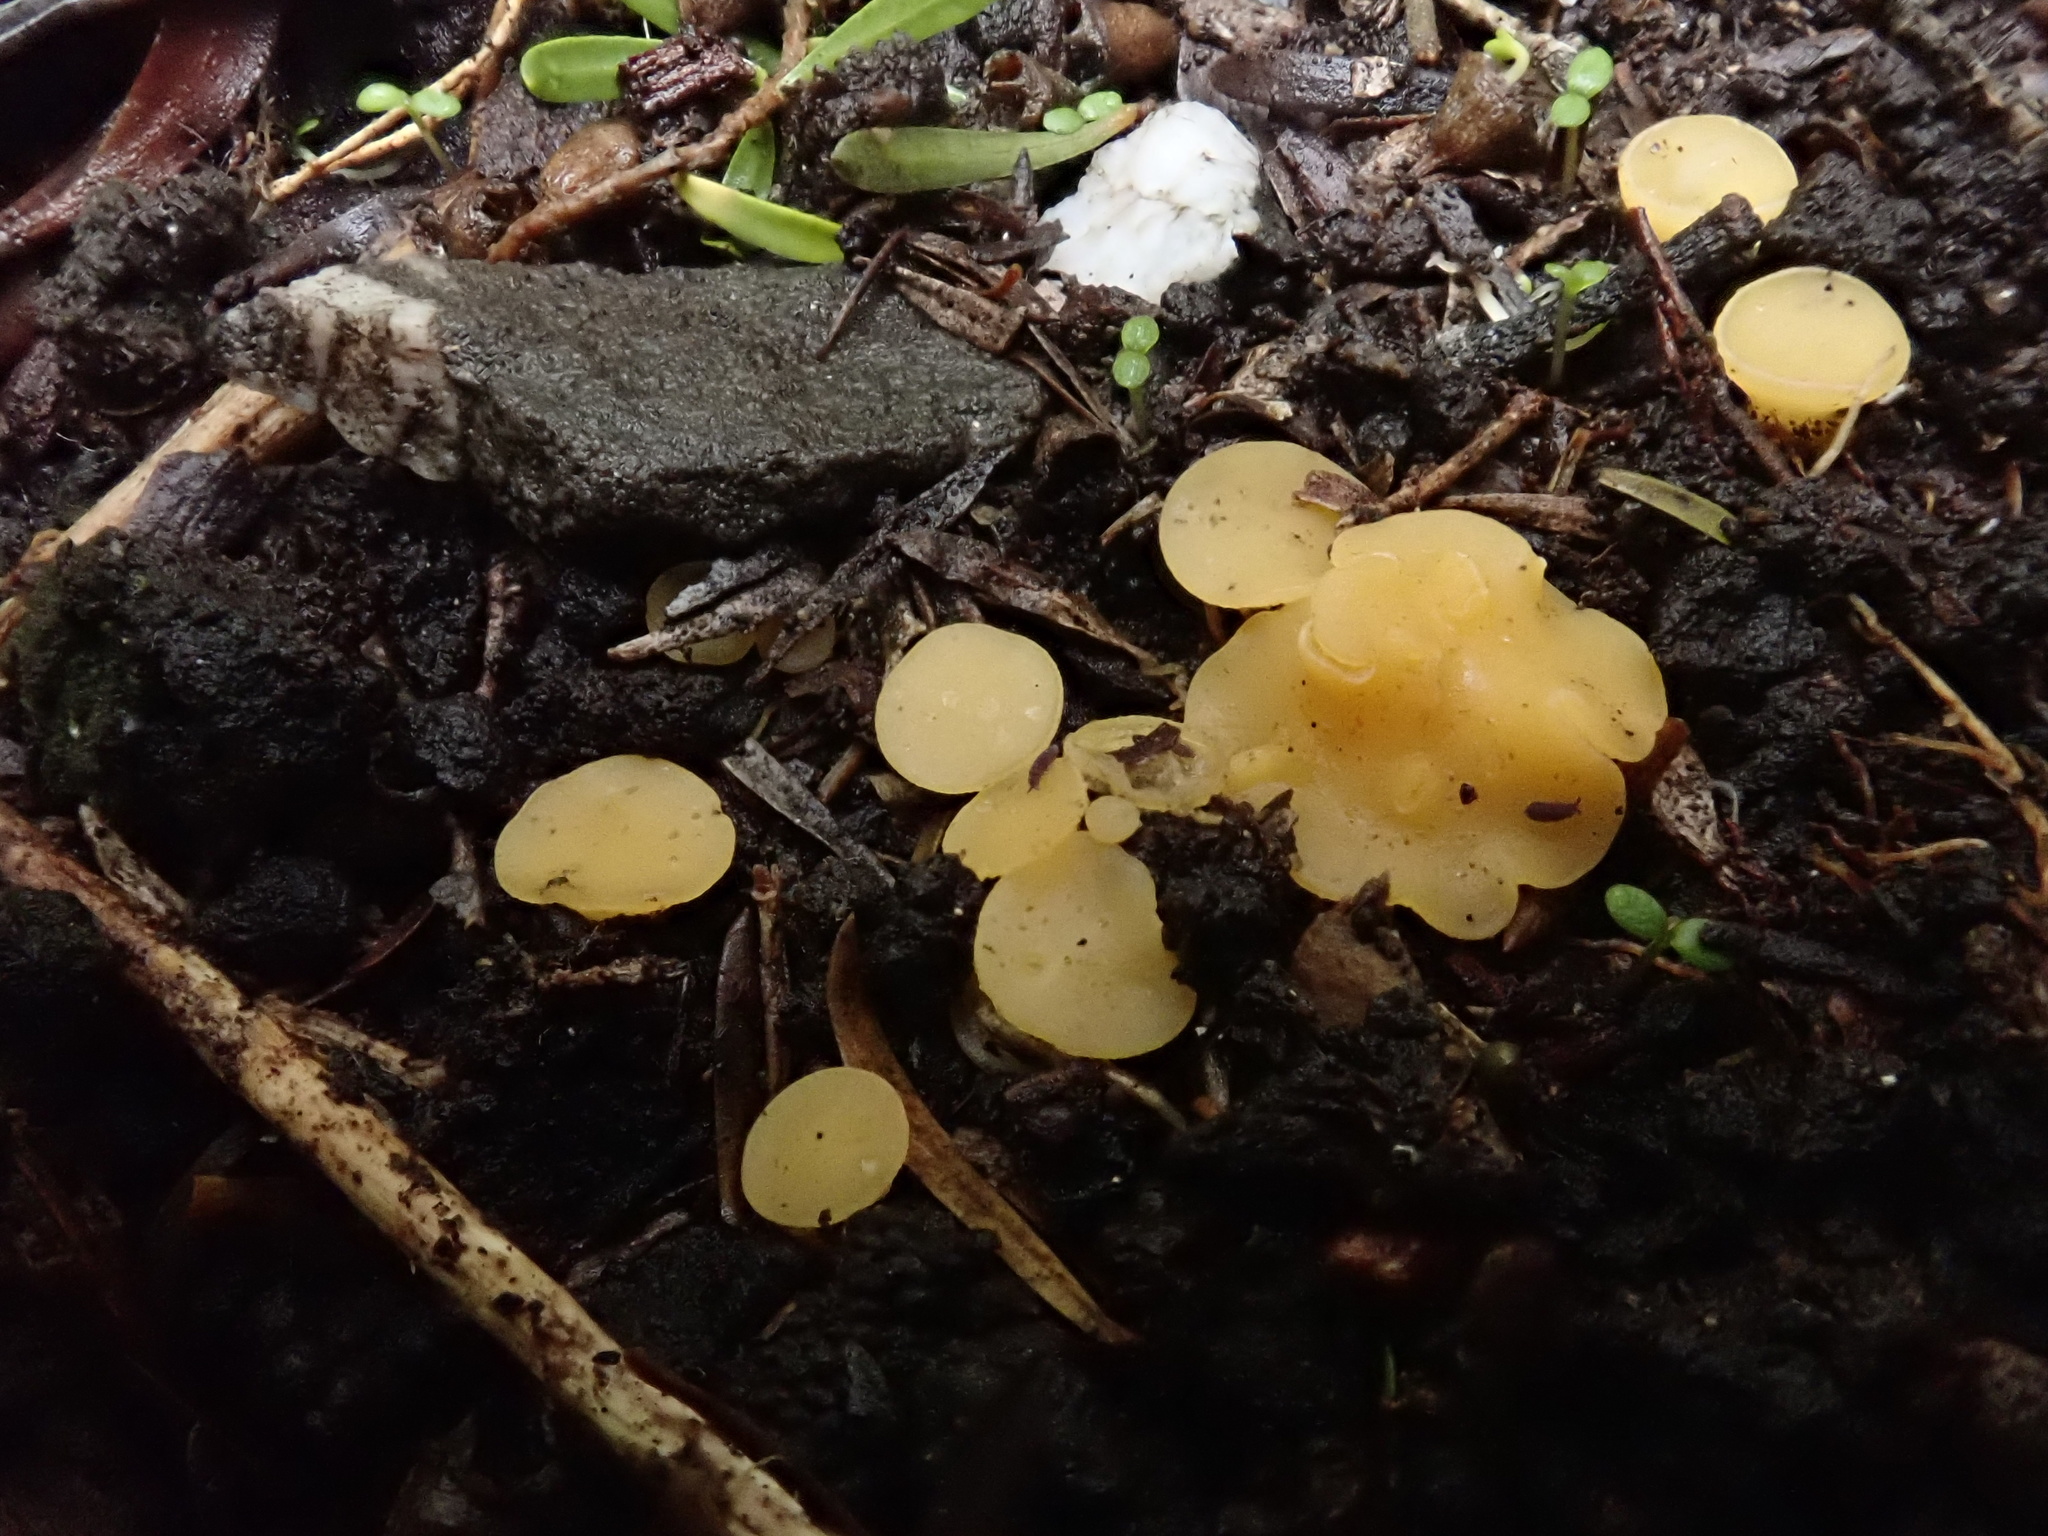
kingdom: Fungi
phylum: Ascomycota
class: Leotiomycetes
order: Helotiales
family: Helotiaceae
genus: Phaeohelotium
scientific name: Phaeohelotium baileyanum
